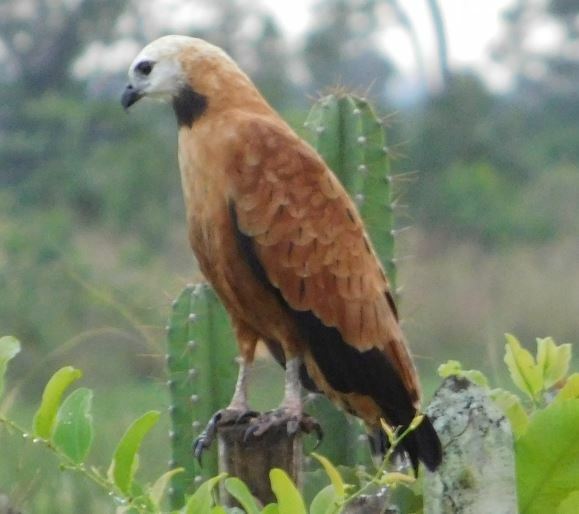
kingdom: Animalia
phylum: Chordata
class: Aves
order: Accipitriformes
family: Accipitridae
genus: Busarellus
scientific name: Busarellus nigricollis
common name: Black-collared hawk
